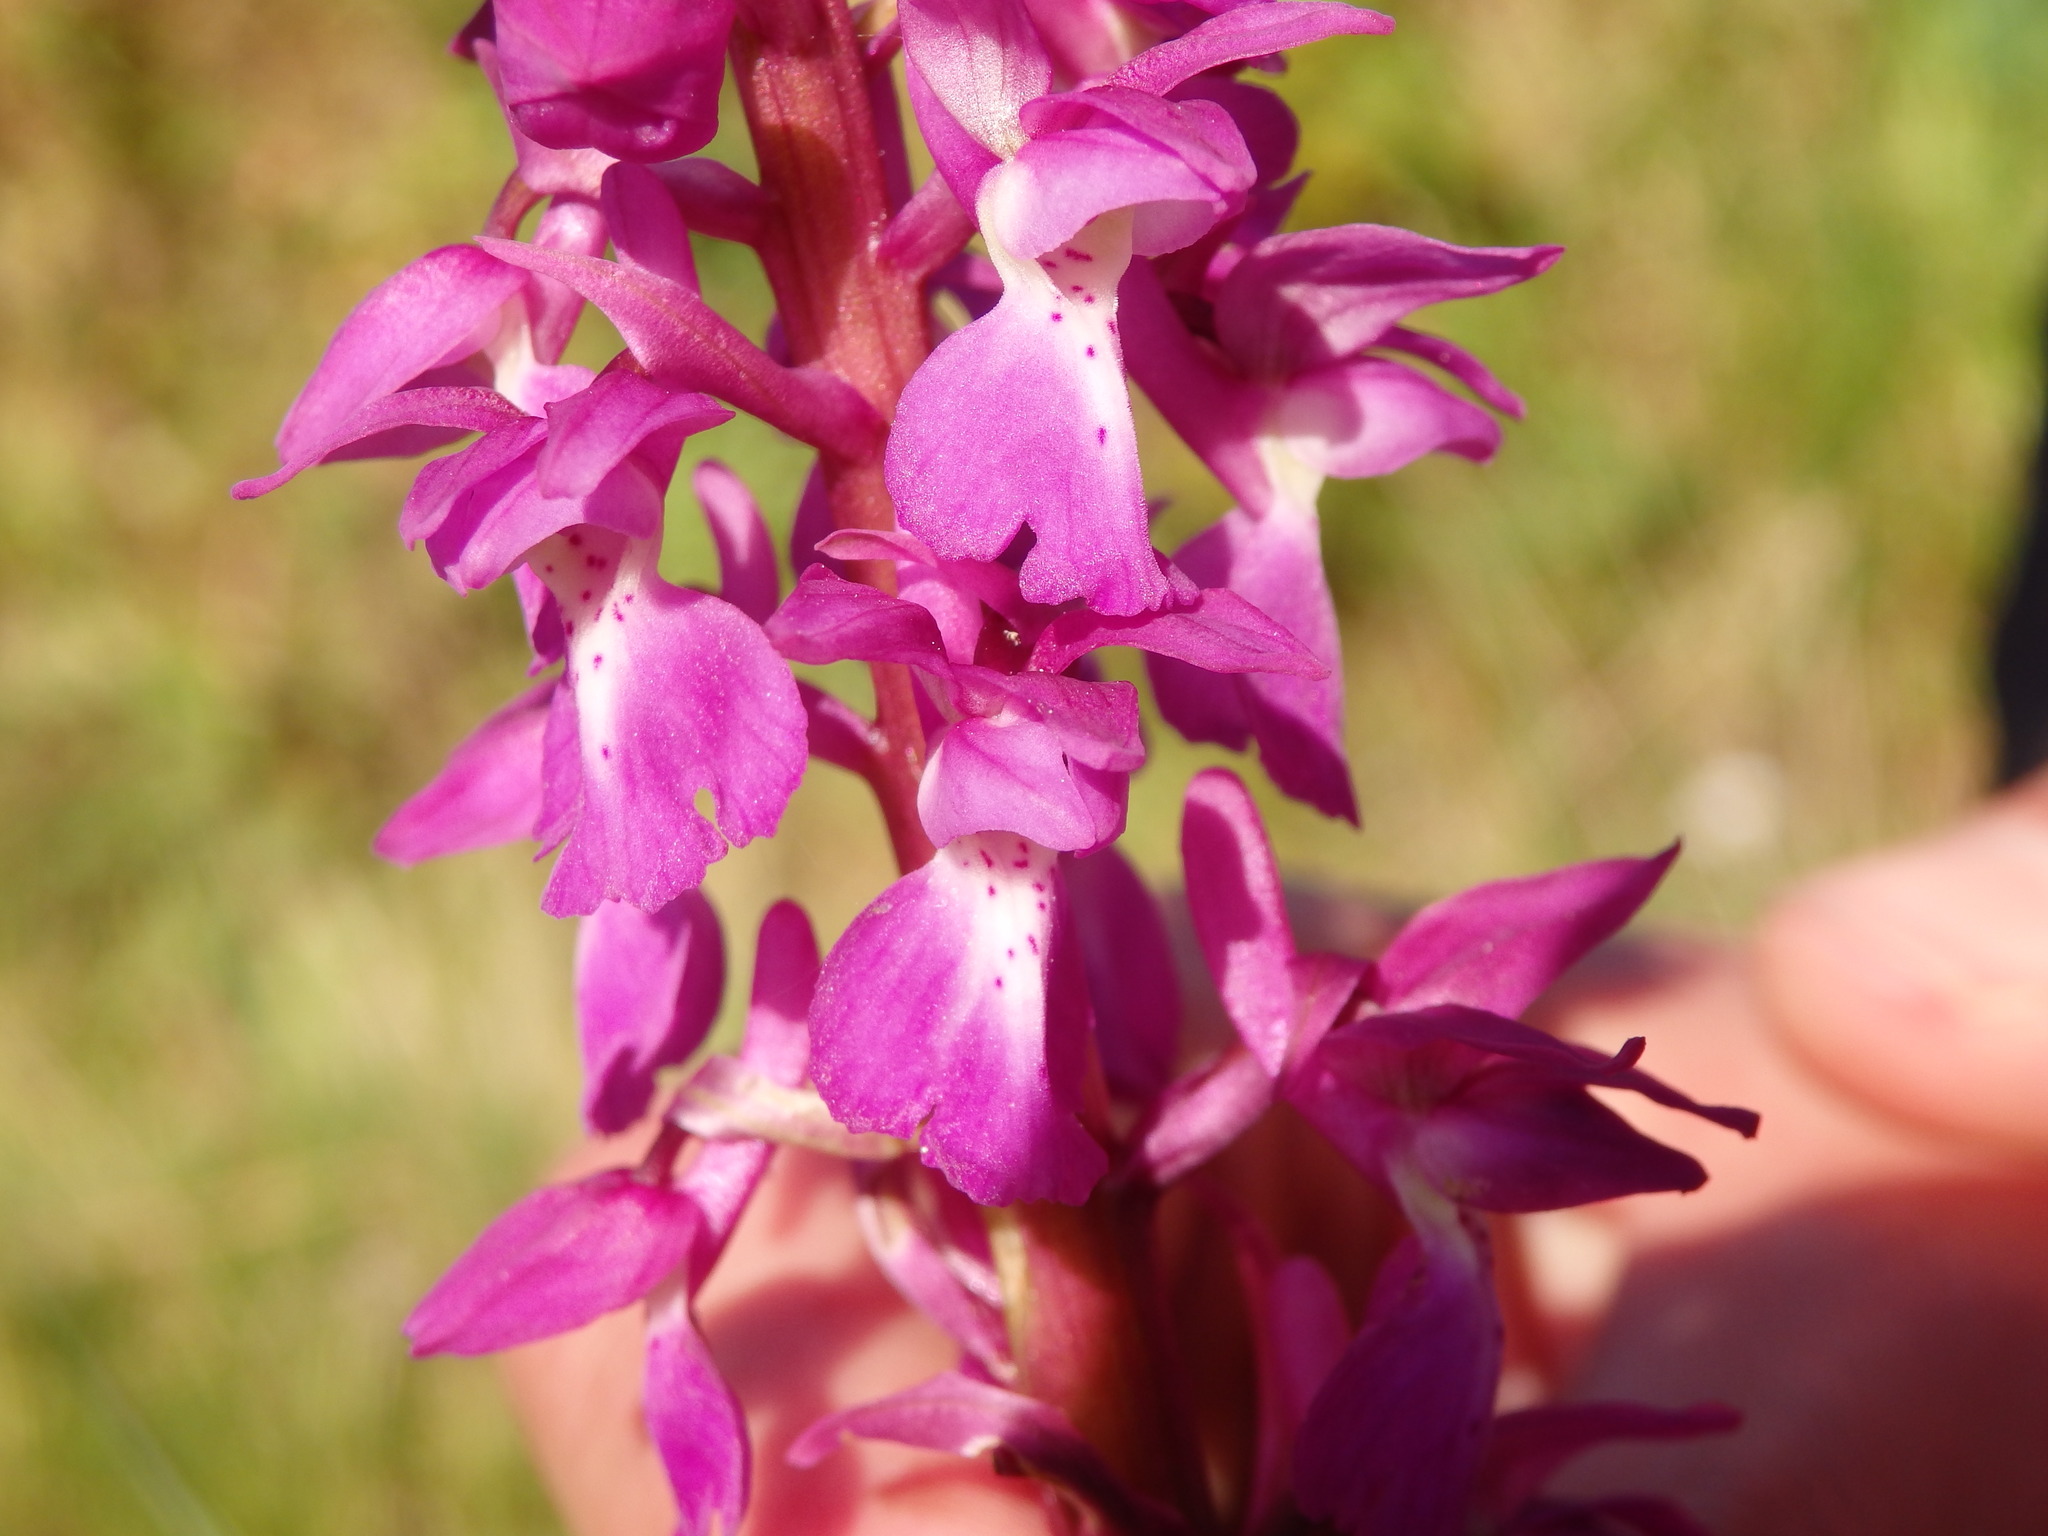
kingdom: Plantae
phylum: Tracheophyta
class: Liliopsida
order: Asparagales
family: Orchidaceae
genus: Orchis
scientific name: Orchis mascula
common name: Early-purple orchid
